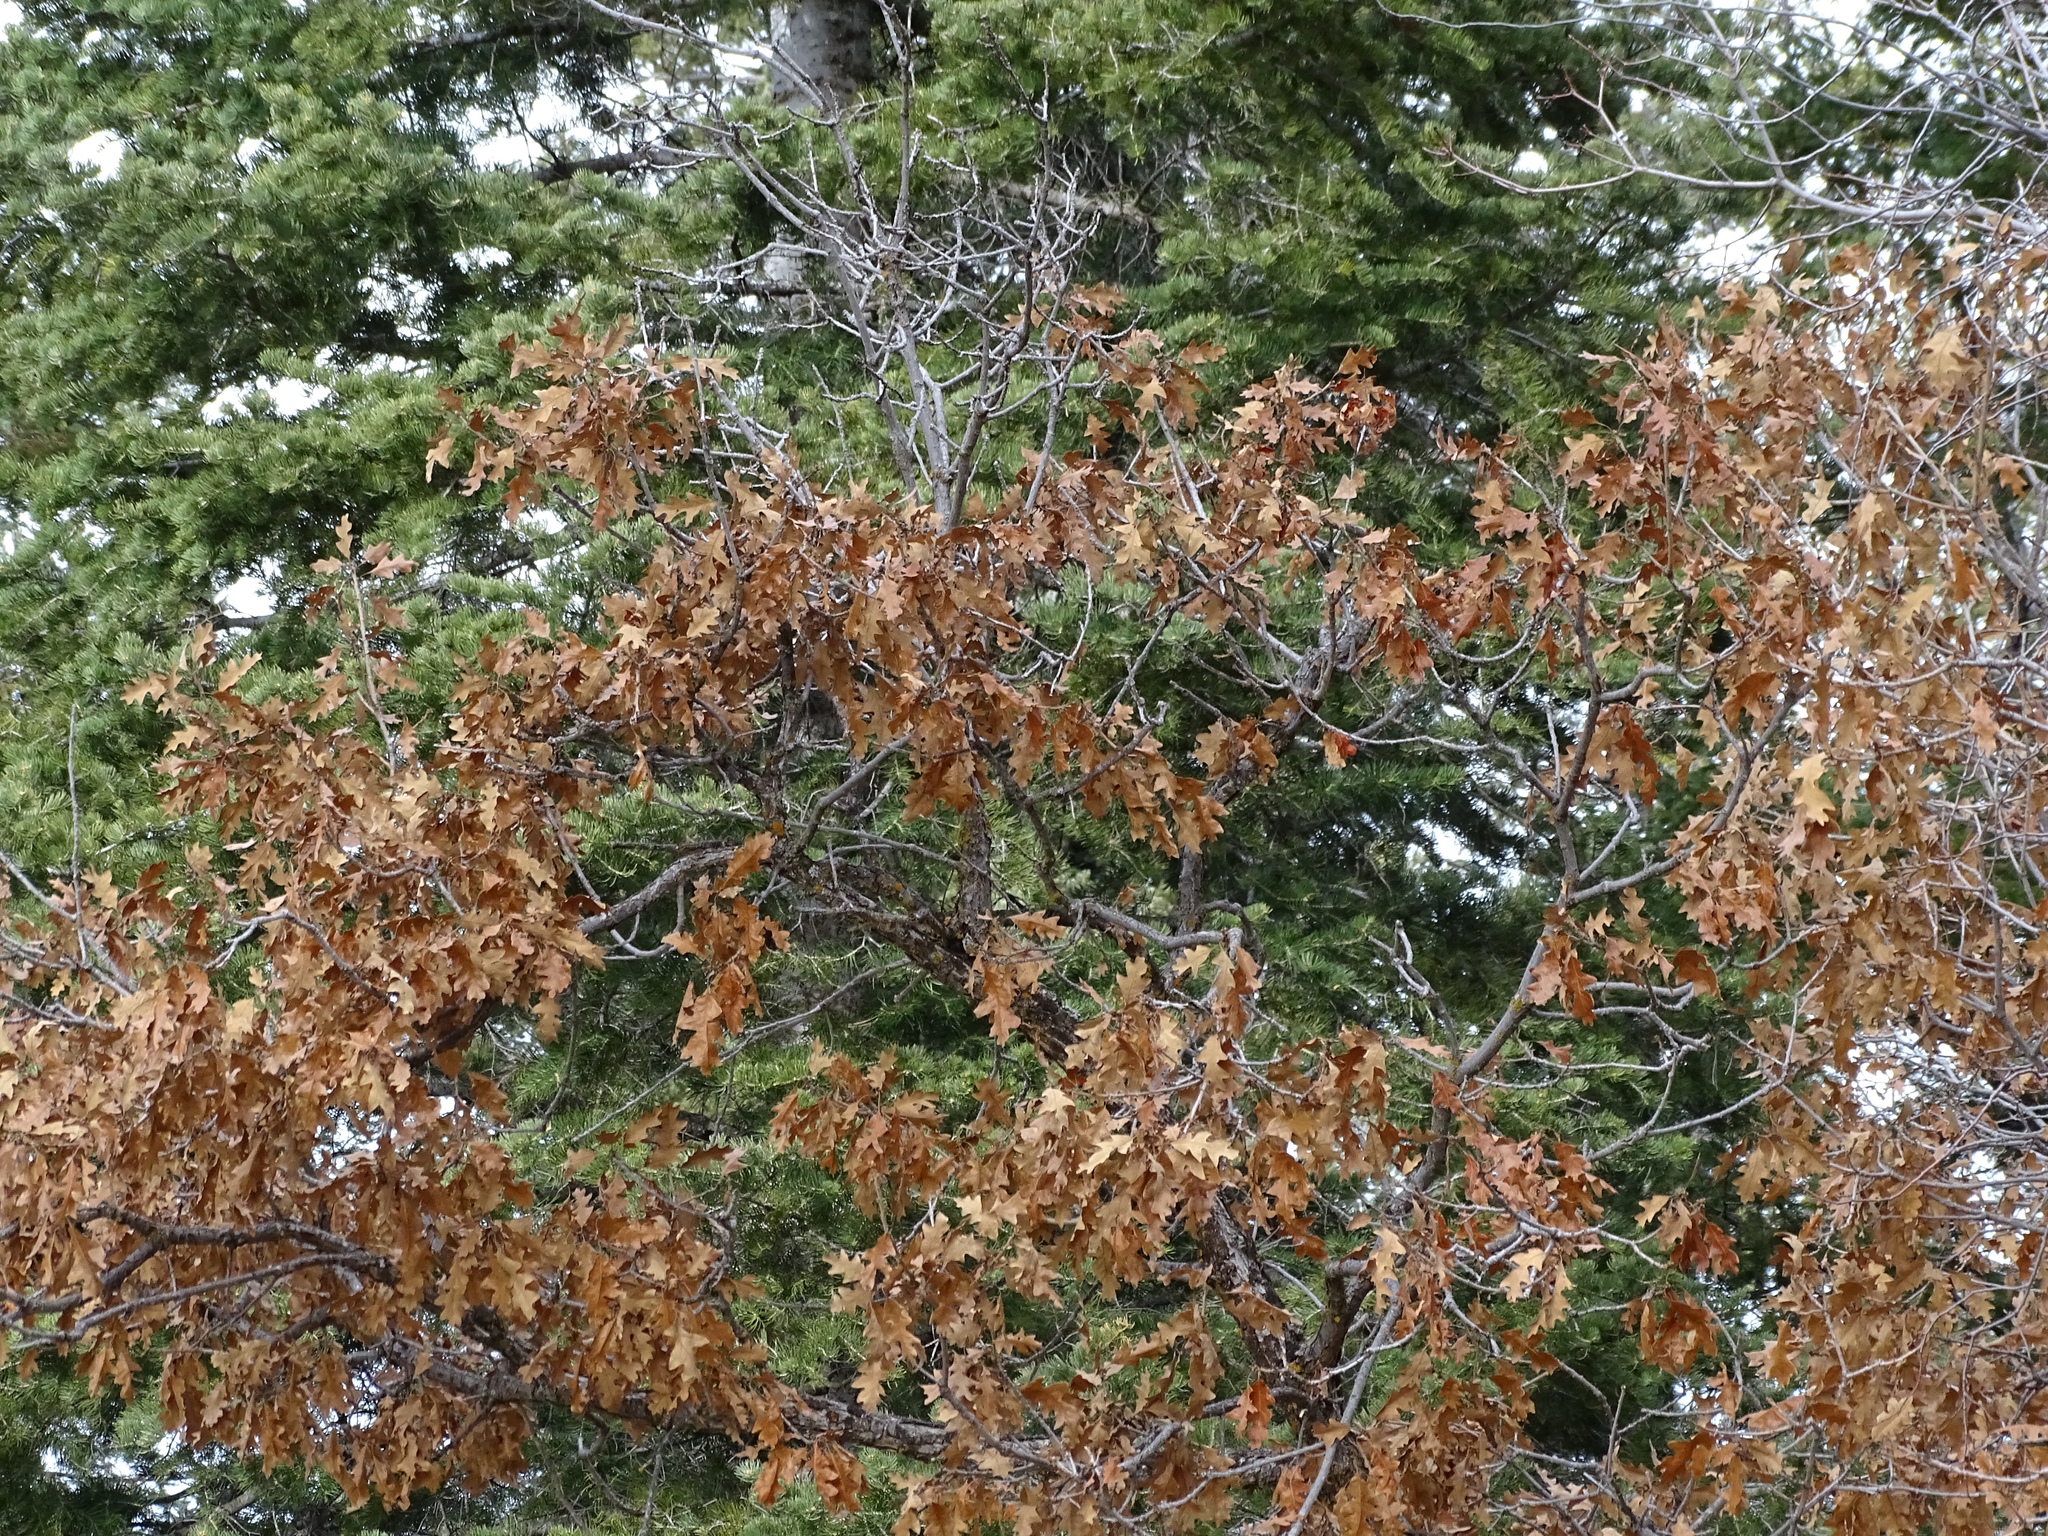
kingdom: Plantae
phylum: Tracheophyta
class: Magnoliopsida
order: Fagales
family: Fagaceae
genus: Quercus
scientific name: Quercus gambelii
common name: Gambel oak
